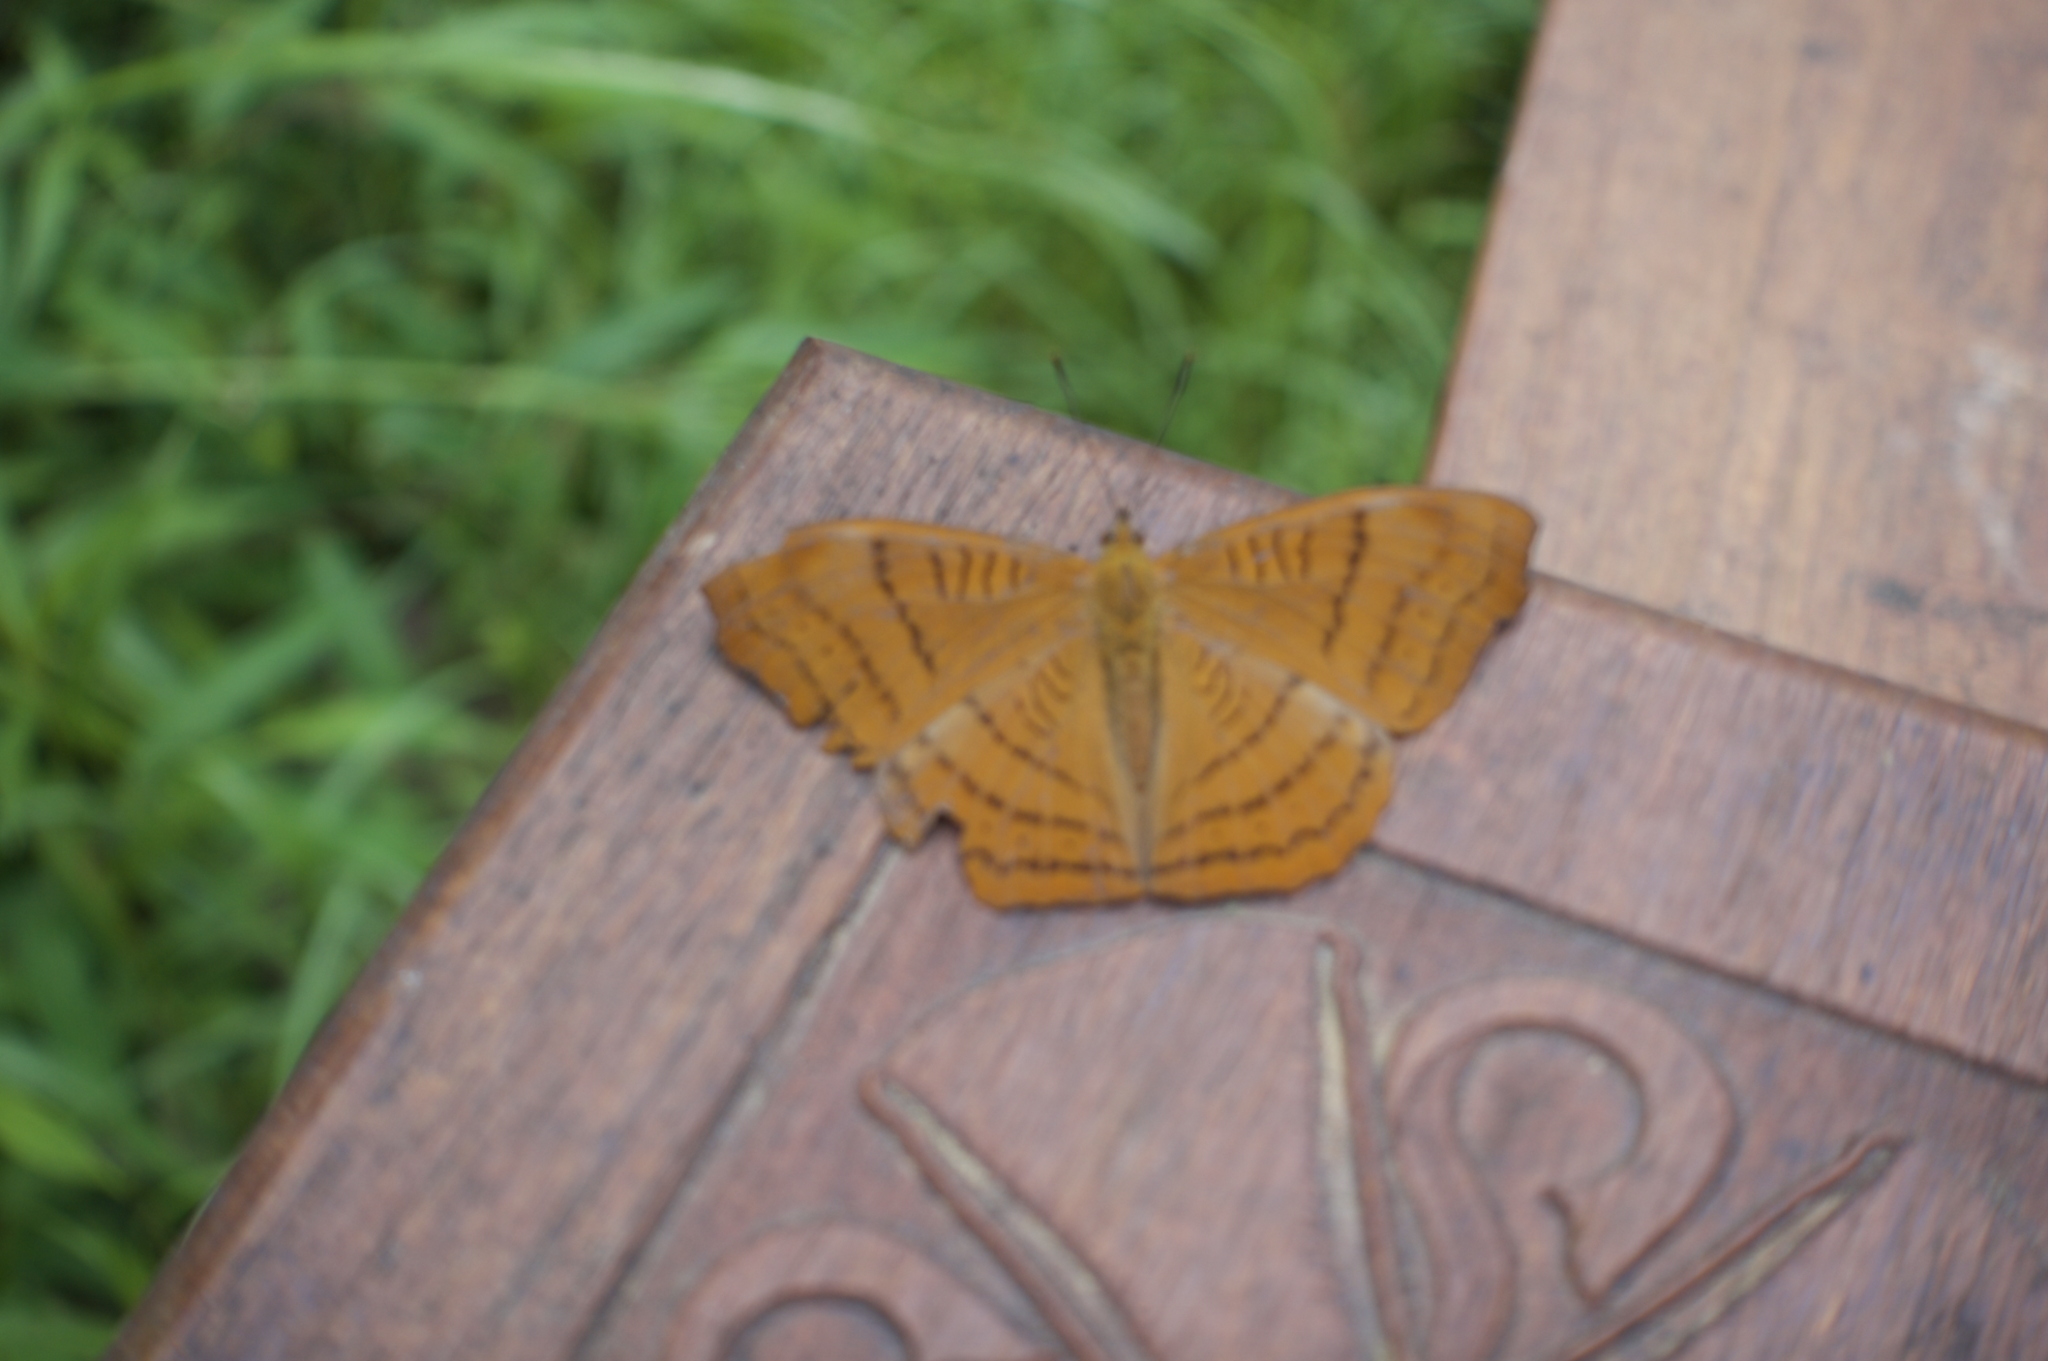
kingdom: Animalia
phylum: Arthropoda
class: Insecta
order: Lepidoptera
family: Nymphalidae
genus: Pseudergolis
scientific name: Pseudergolis wedah
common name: Tabby
